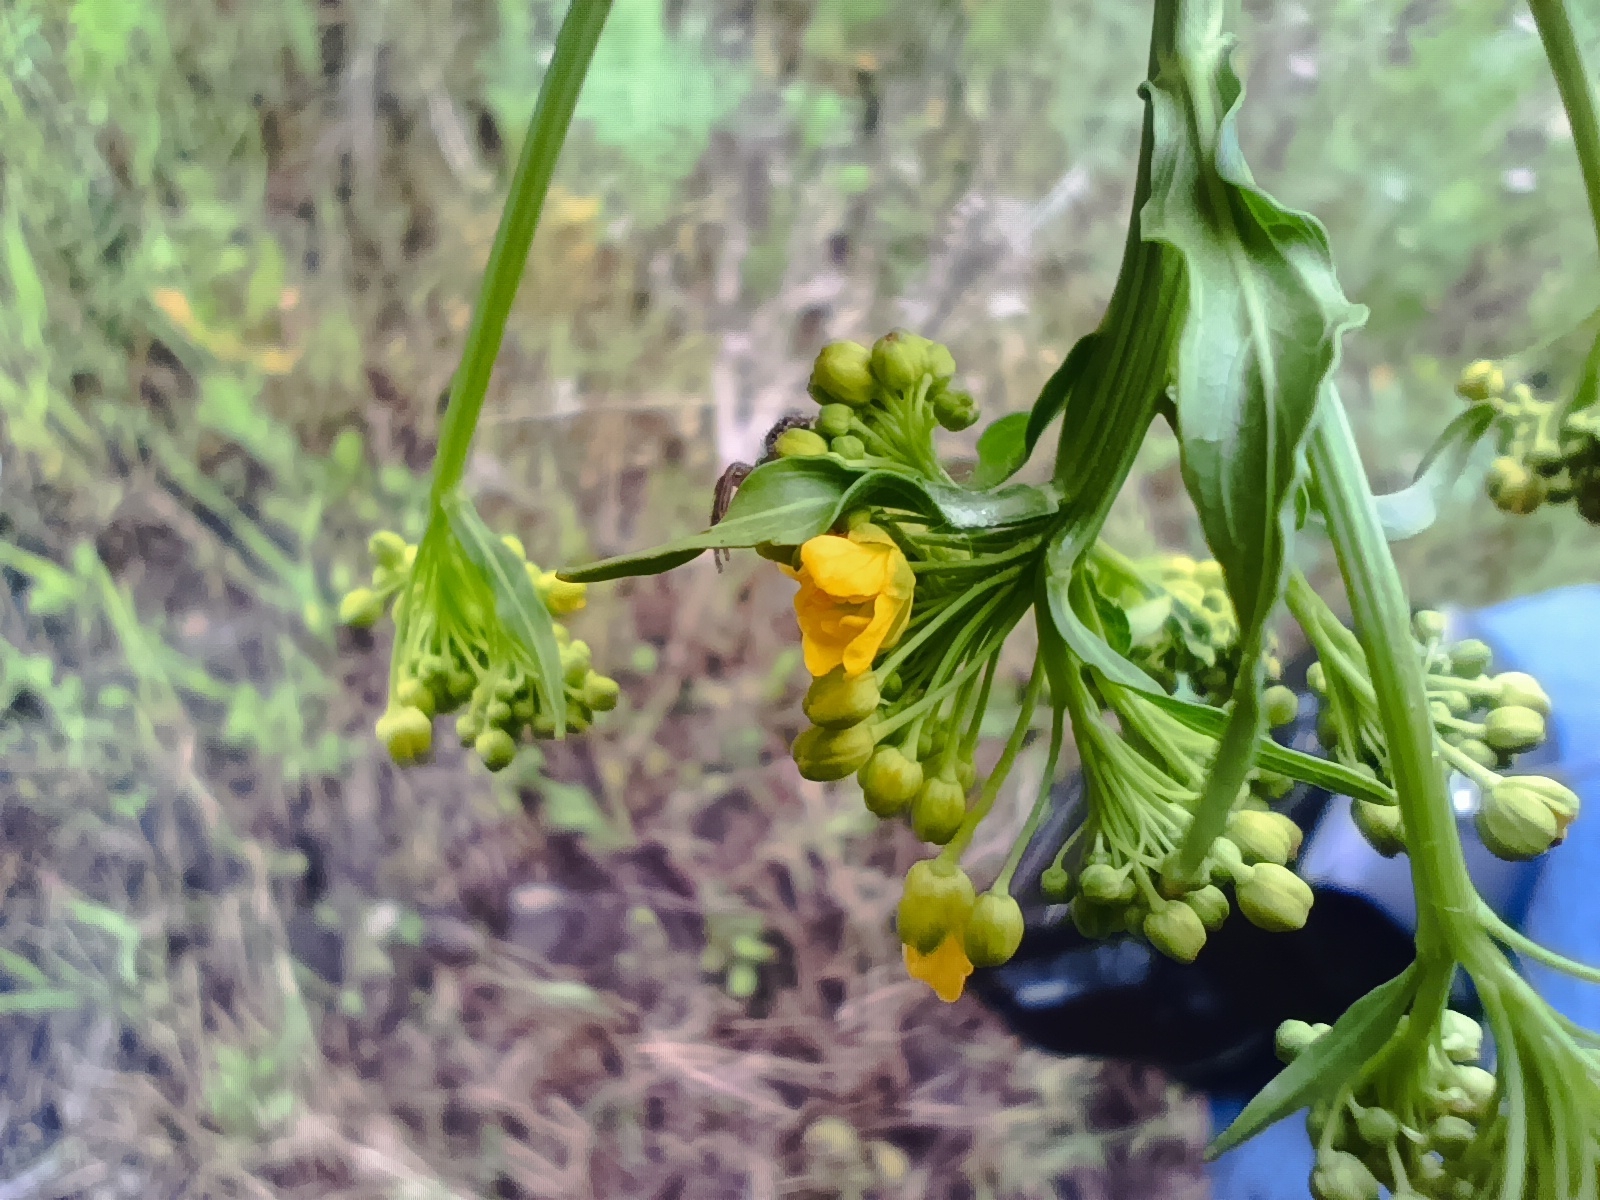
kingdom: Plantae
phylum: Tracheophyta
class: Magnoliopsida
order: Brassicales
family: Brassicaceae
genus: Barbarea
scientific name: Barbarea vulgaris
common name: Cressy-greens
